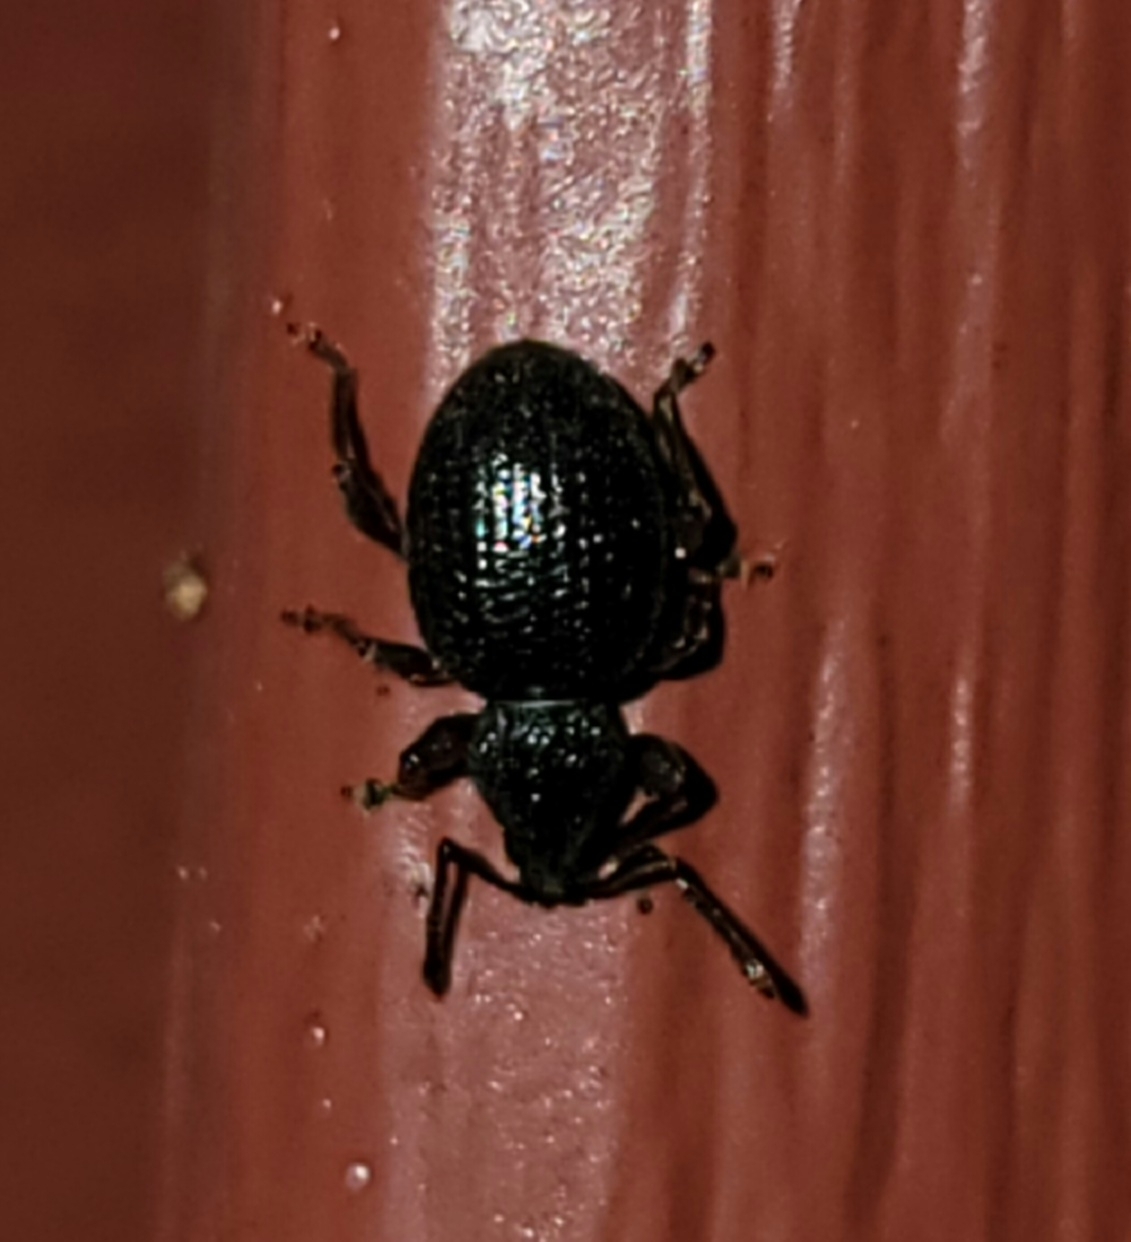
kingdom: Animalia
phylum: Arthropoda
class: Insecta
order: Coleoptera
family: Curculionidae
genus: Otiorhynchus
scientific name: Otiorhynchus sulcatus
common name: Black vine weevil
